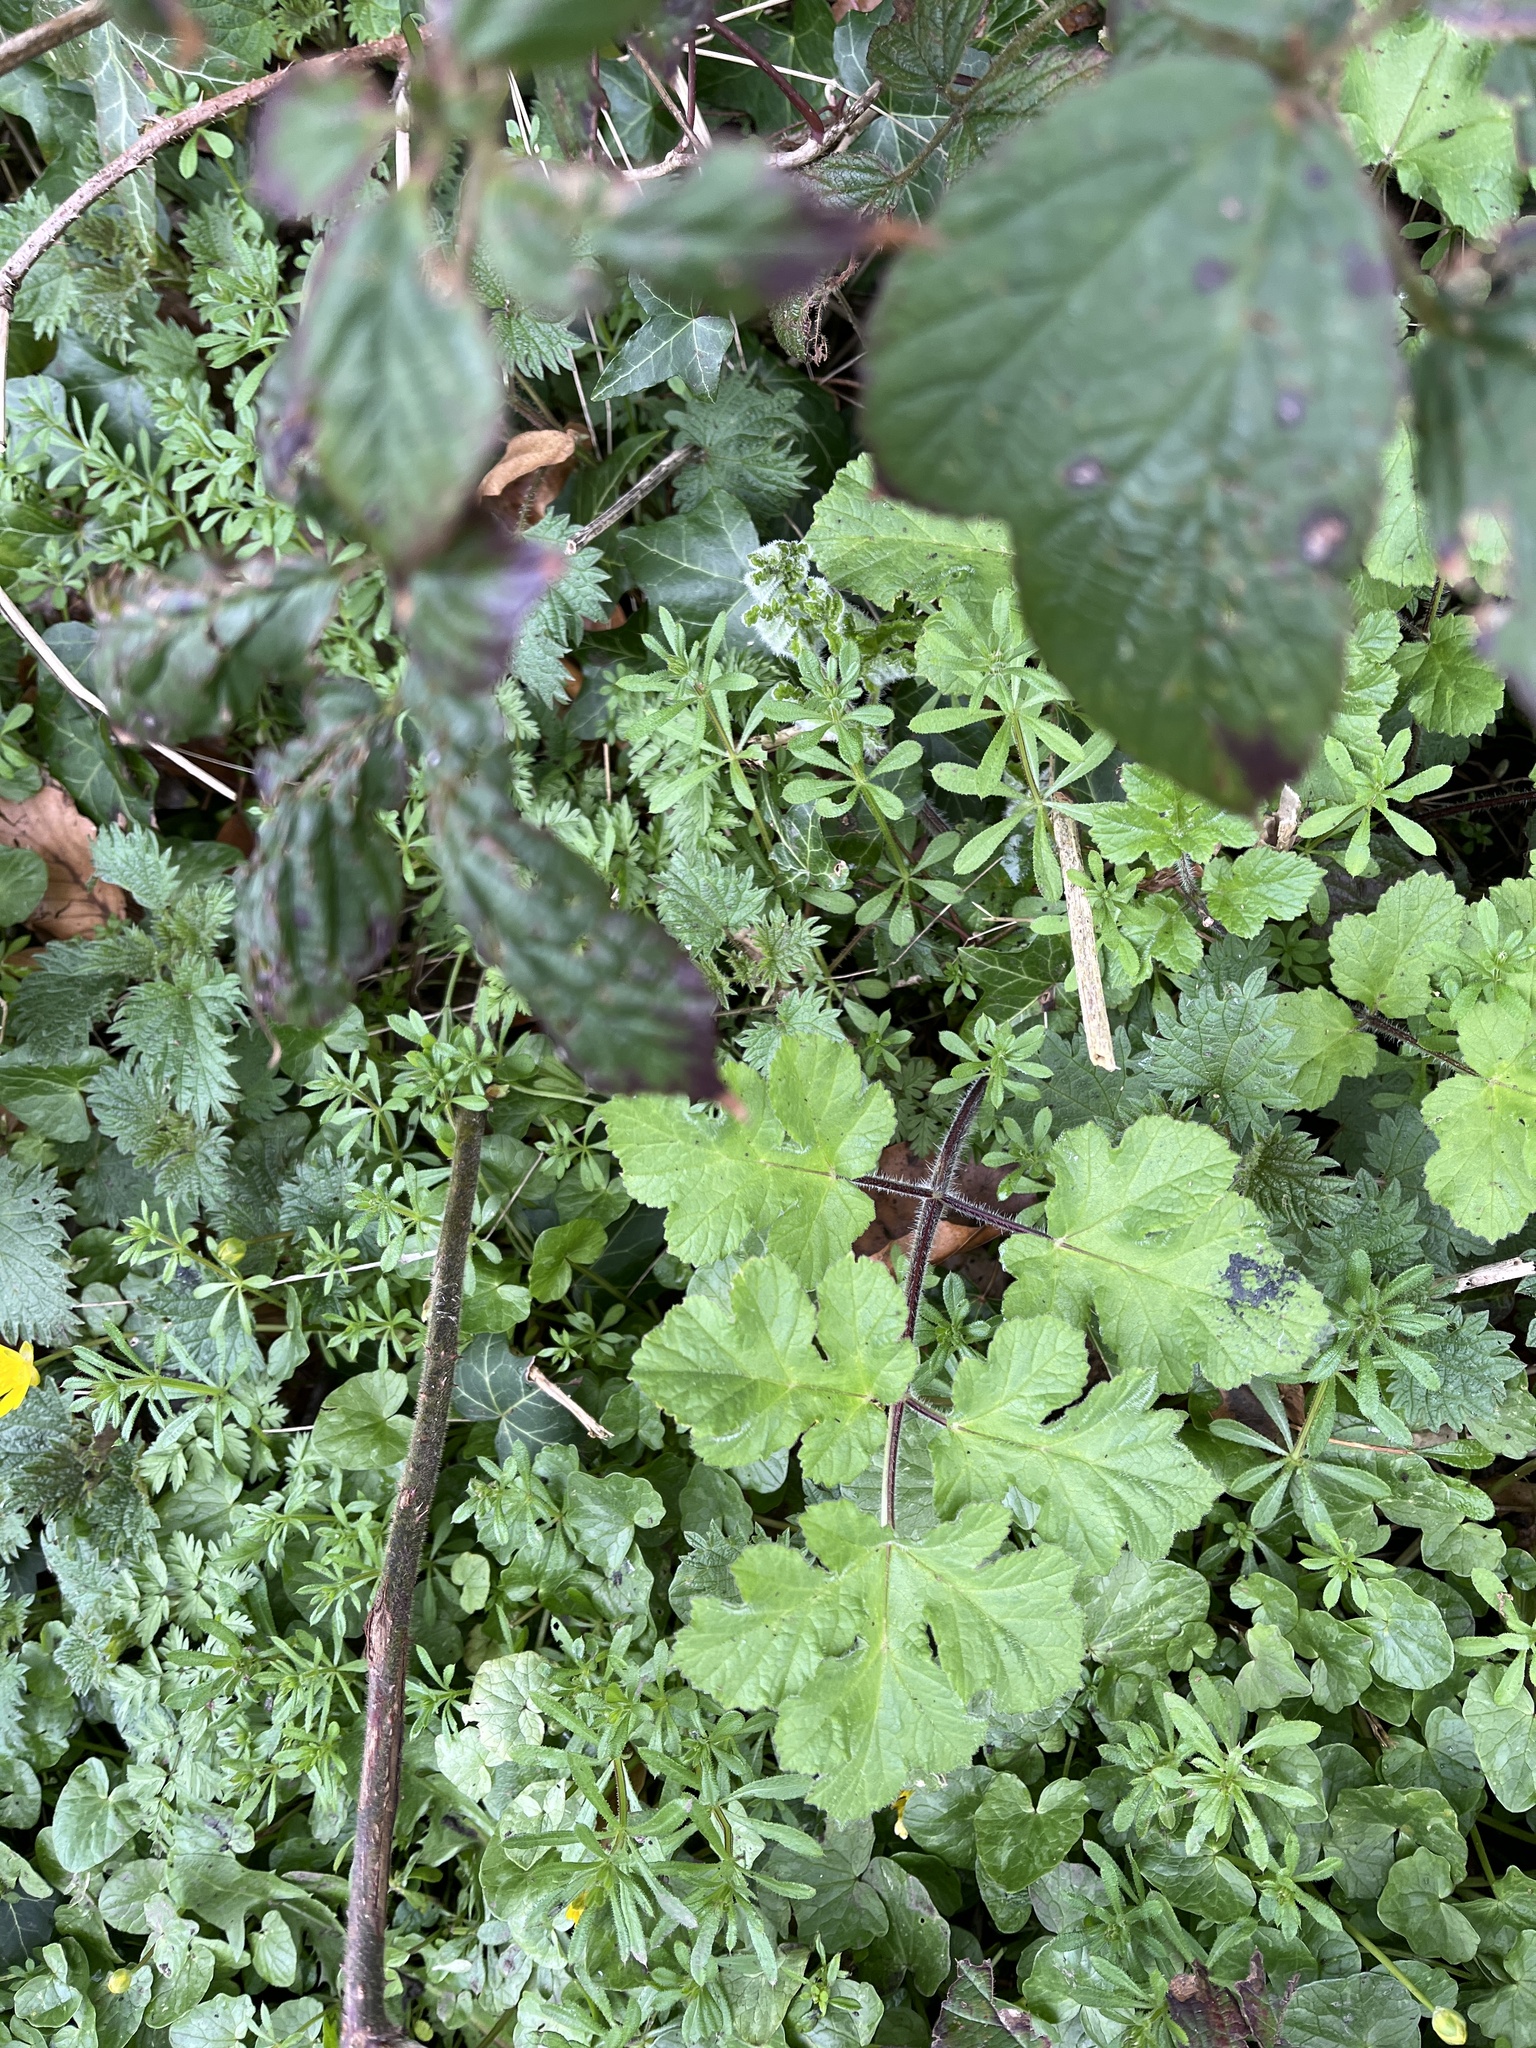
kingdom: Plantae
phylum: Tracheophyta
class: Magnoliopsida
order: Apiales
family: Apiaceae
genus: Heracleum
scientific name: Heracleum sphondylium
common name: Hogweed
